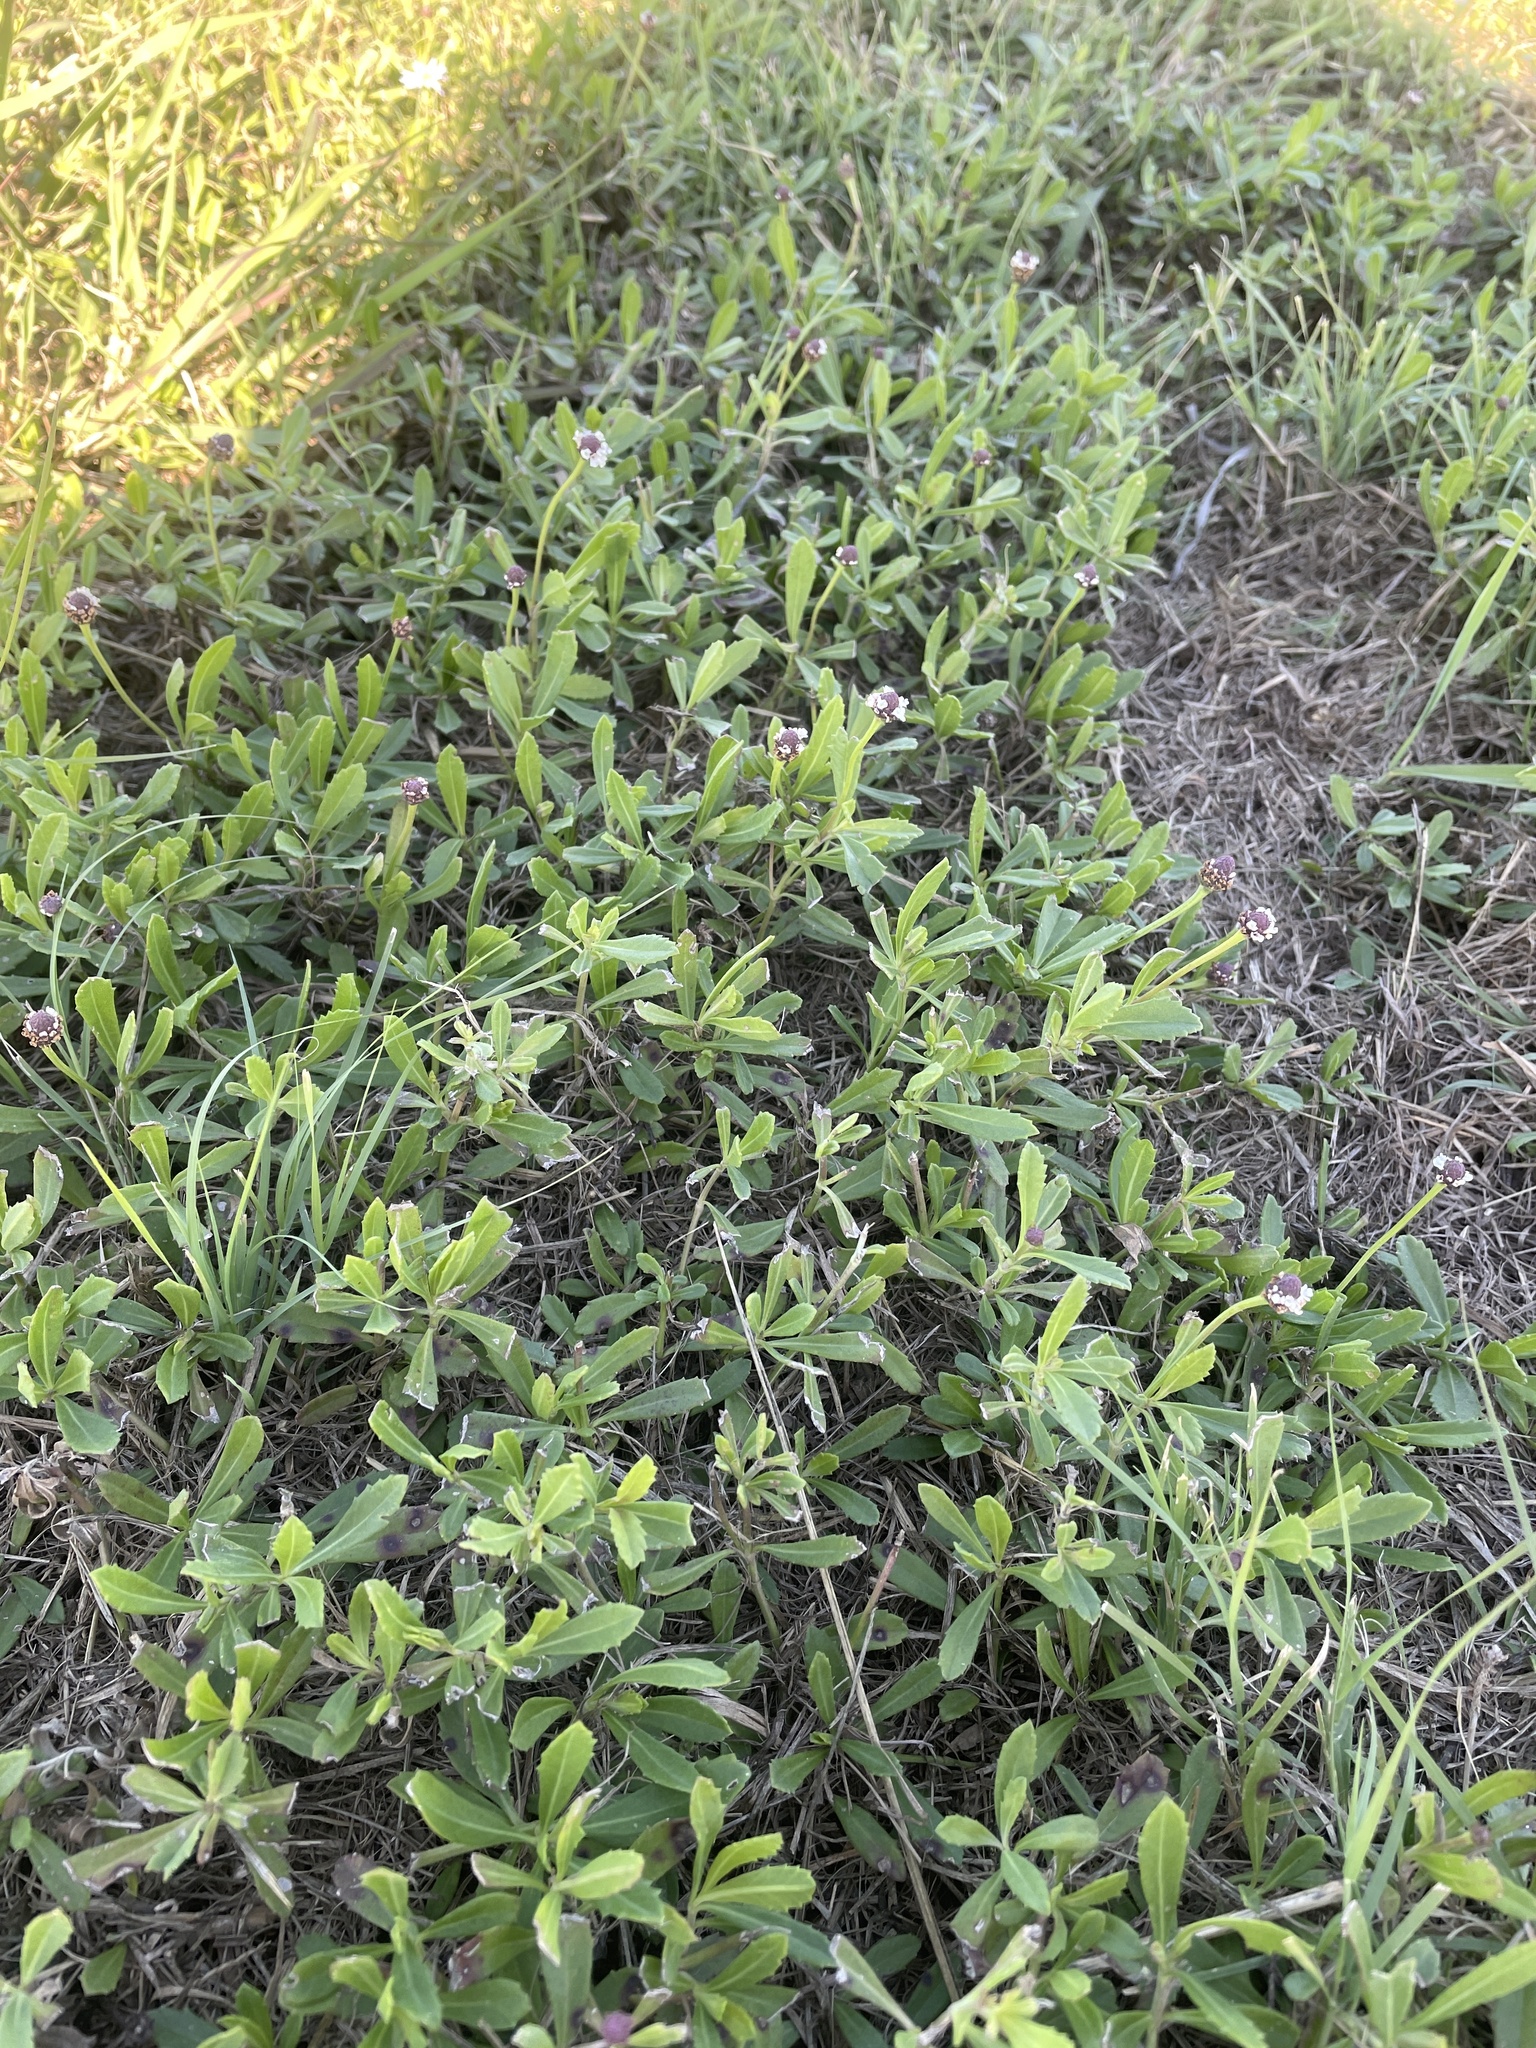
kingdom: Plantae
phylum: Tracheophyta
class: Magnoliopsida
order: Lamiales
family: Verbenaceae
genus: Phyla
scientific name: Phyla nodiflora
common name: Frogfruit
